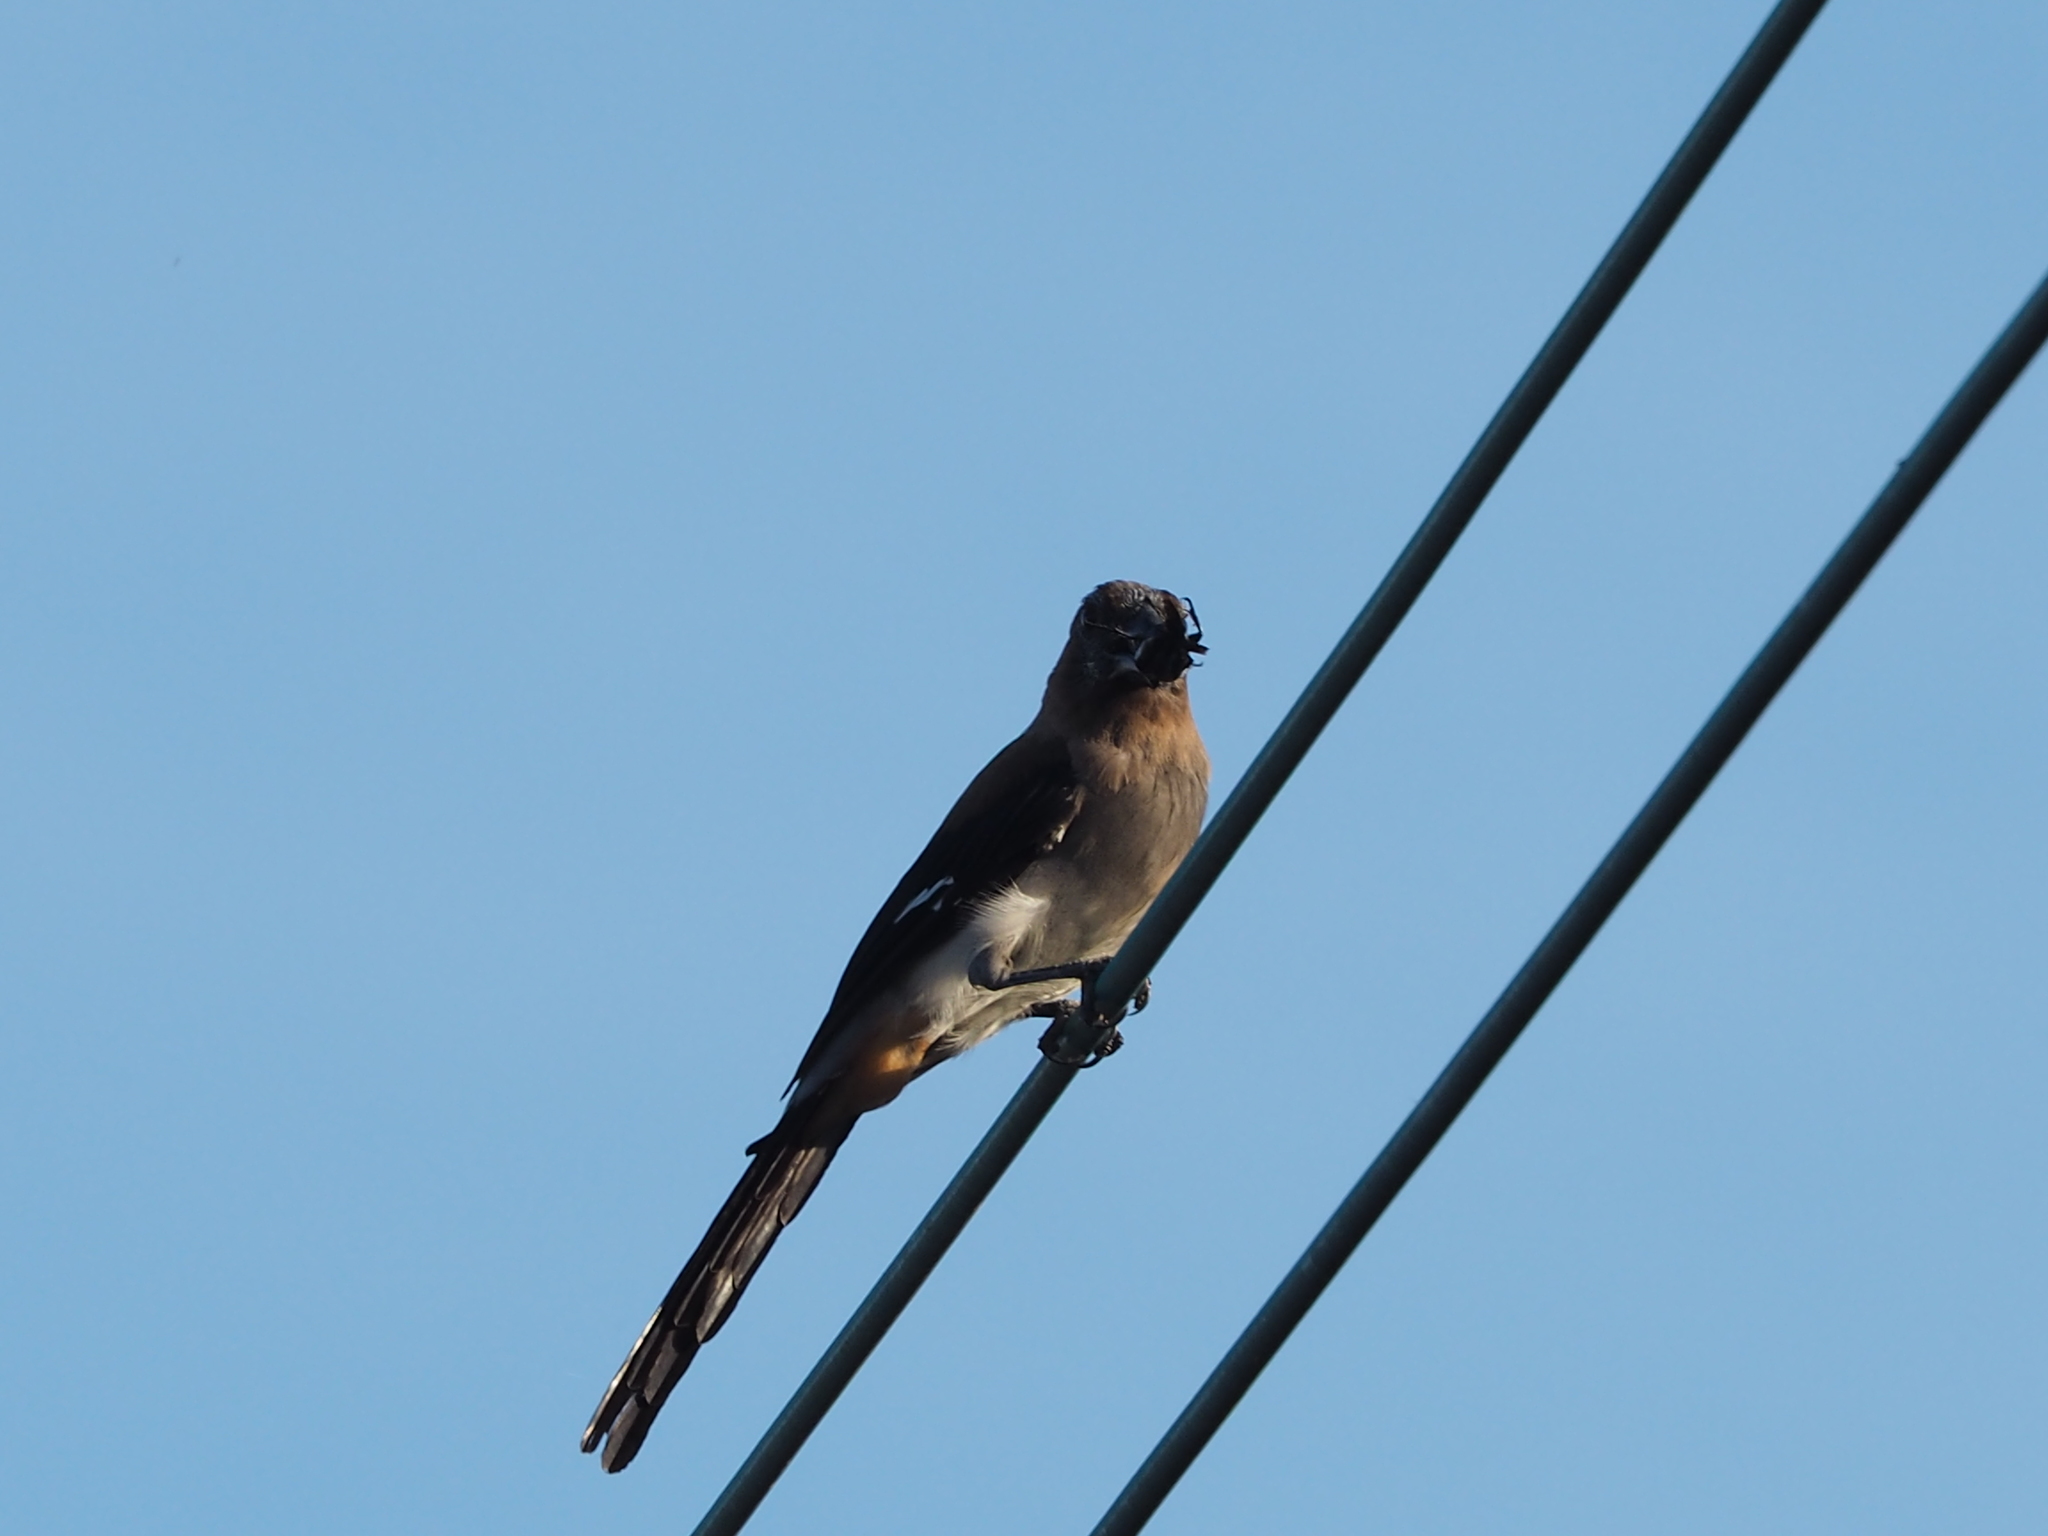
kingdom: Animalia
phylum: Chordata
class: Aves
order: Passeriformes
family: Corvidae
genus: Dendrocitta
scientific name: Dendrocitta formosae
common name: Grey treepie
